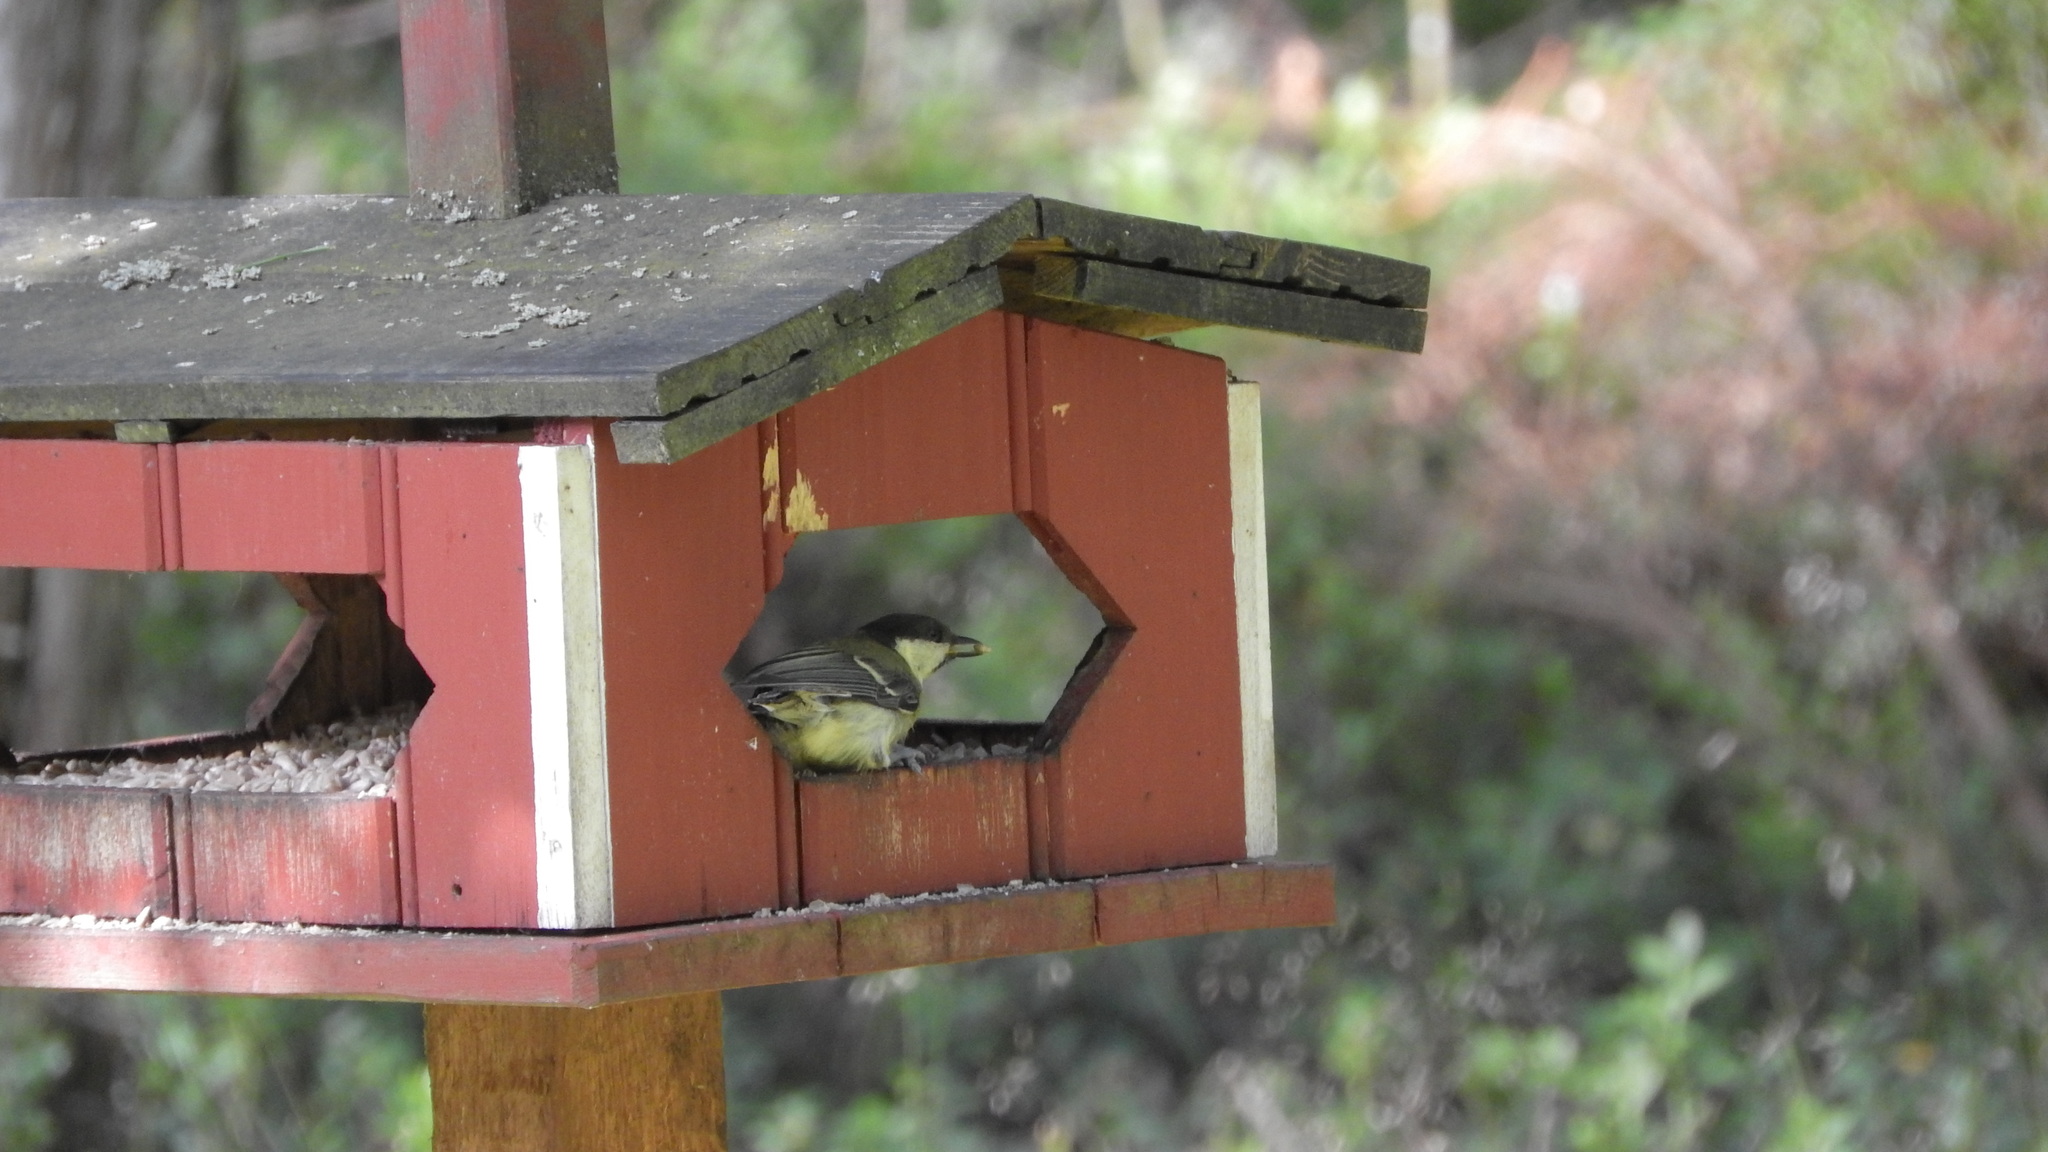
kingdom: Animalia
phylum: Chordata
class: Aves
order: Passeriformes
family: Paridae
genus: Parus
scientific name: Parus major
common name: Great tit
